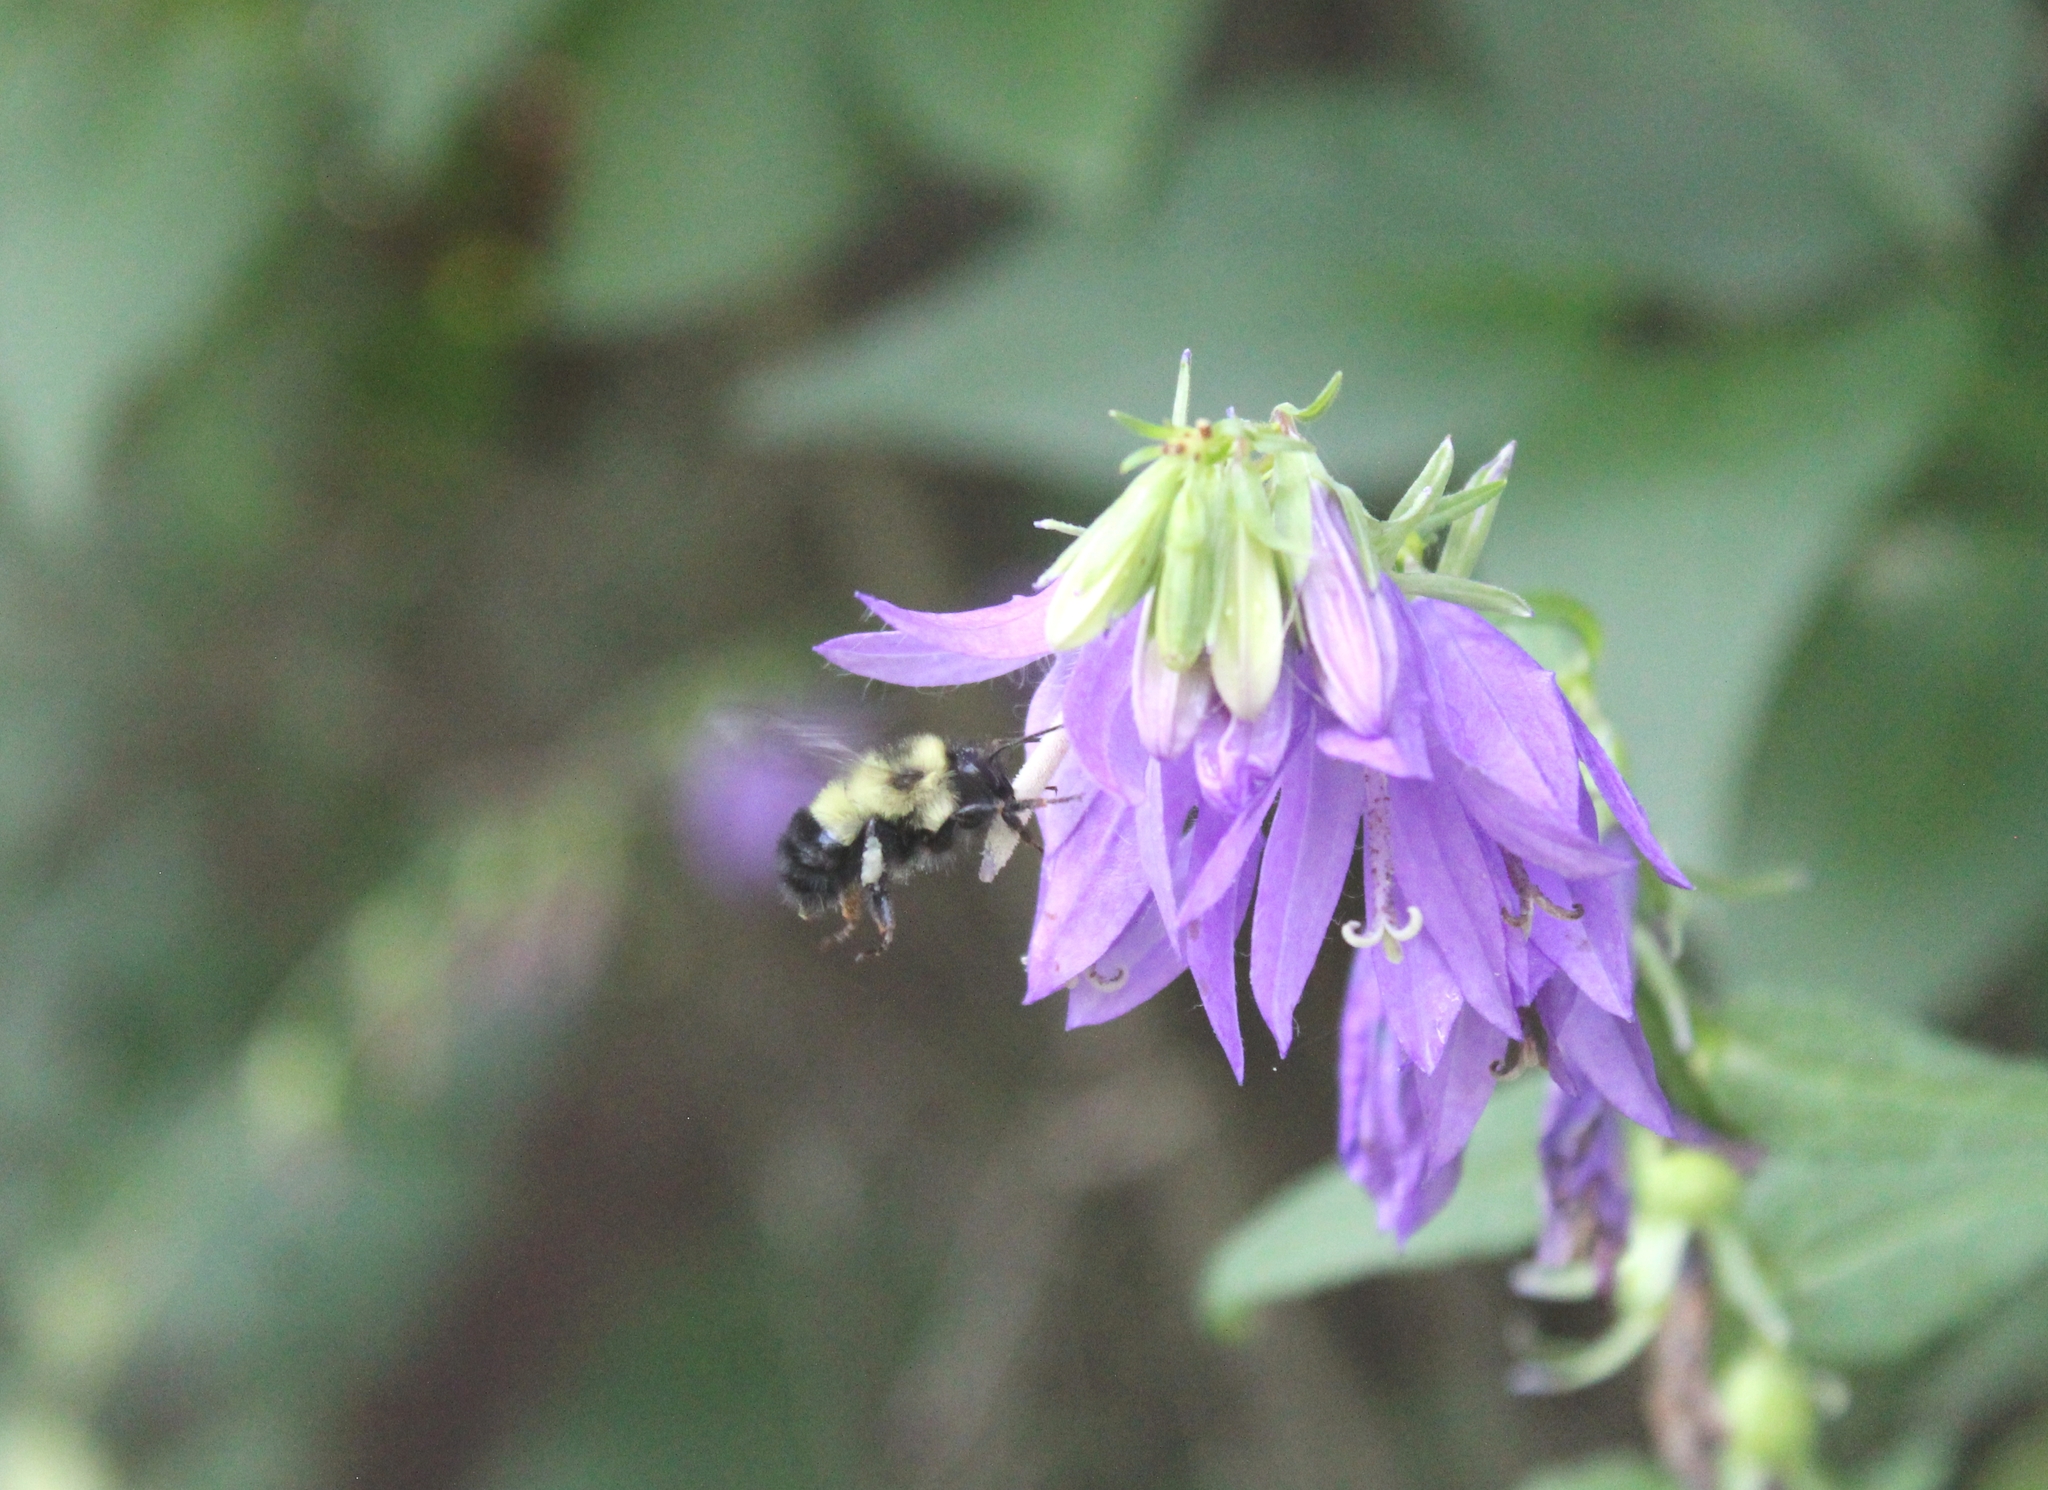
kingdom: Animalia
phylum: Arthropoda
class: Insecta
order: Hymenoptera
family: Apidae
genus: Bombus
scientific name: Bombus vagans
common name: Half-black bumble bee
